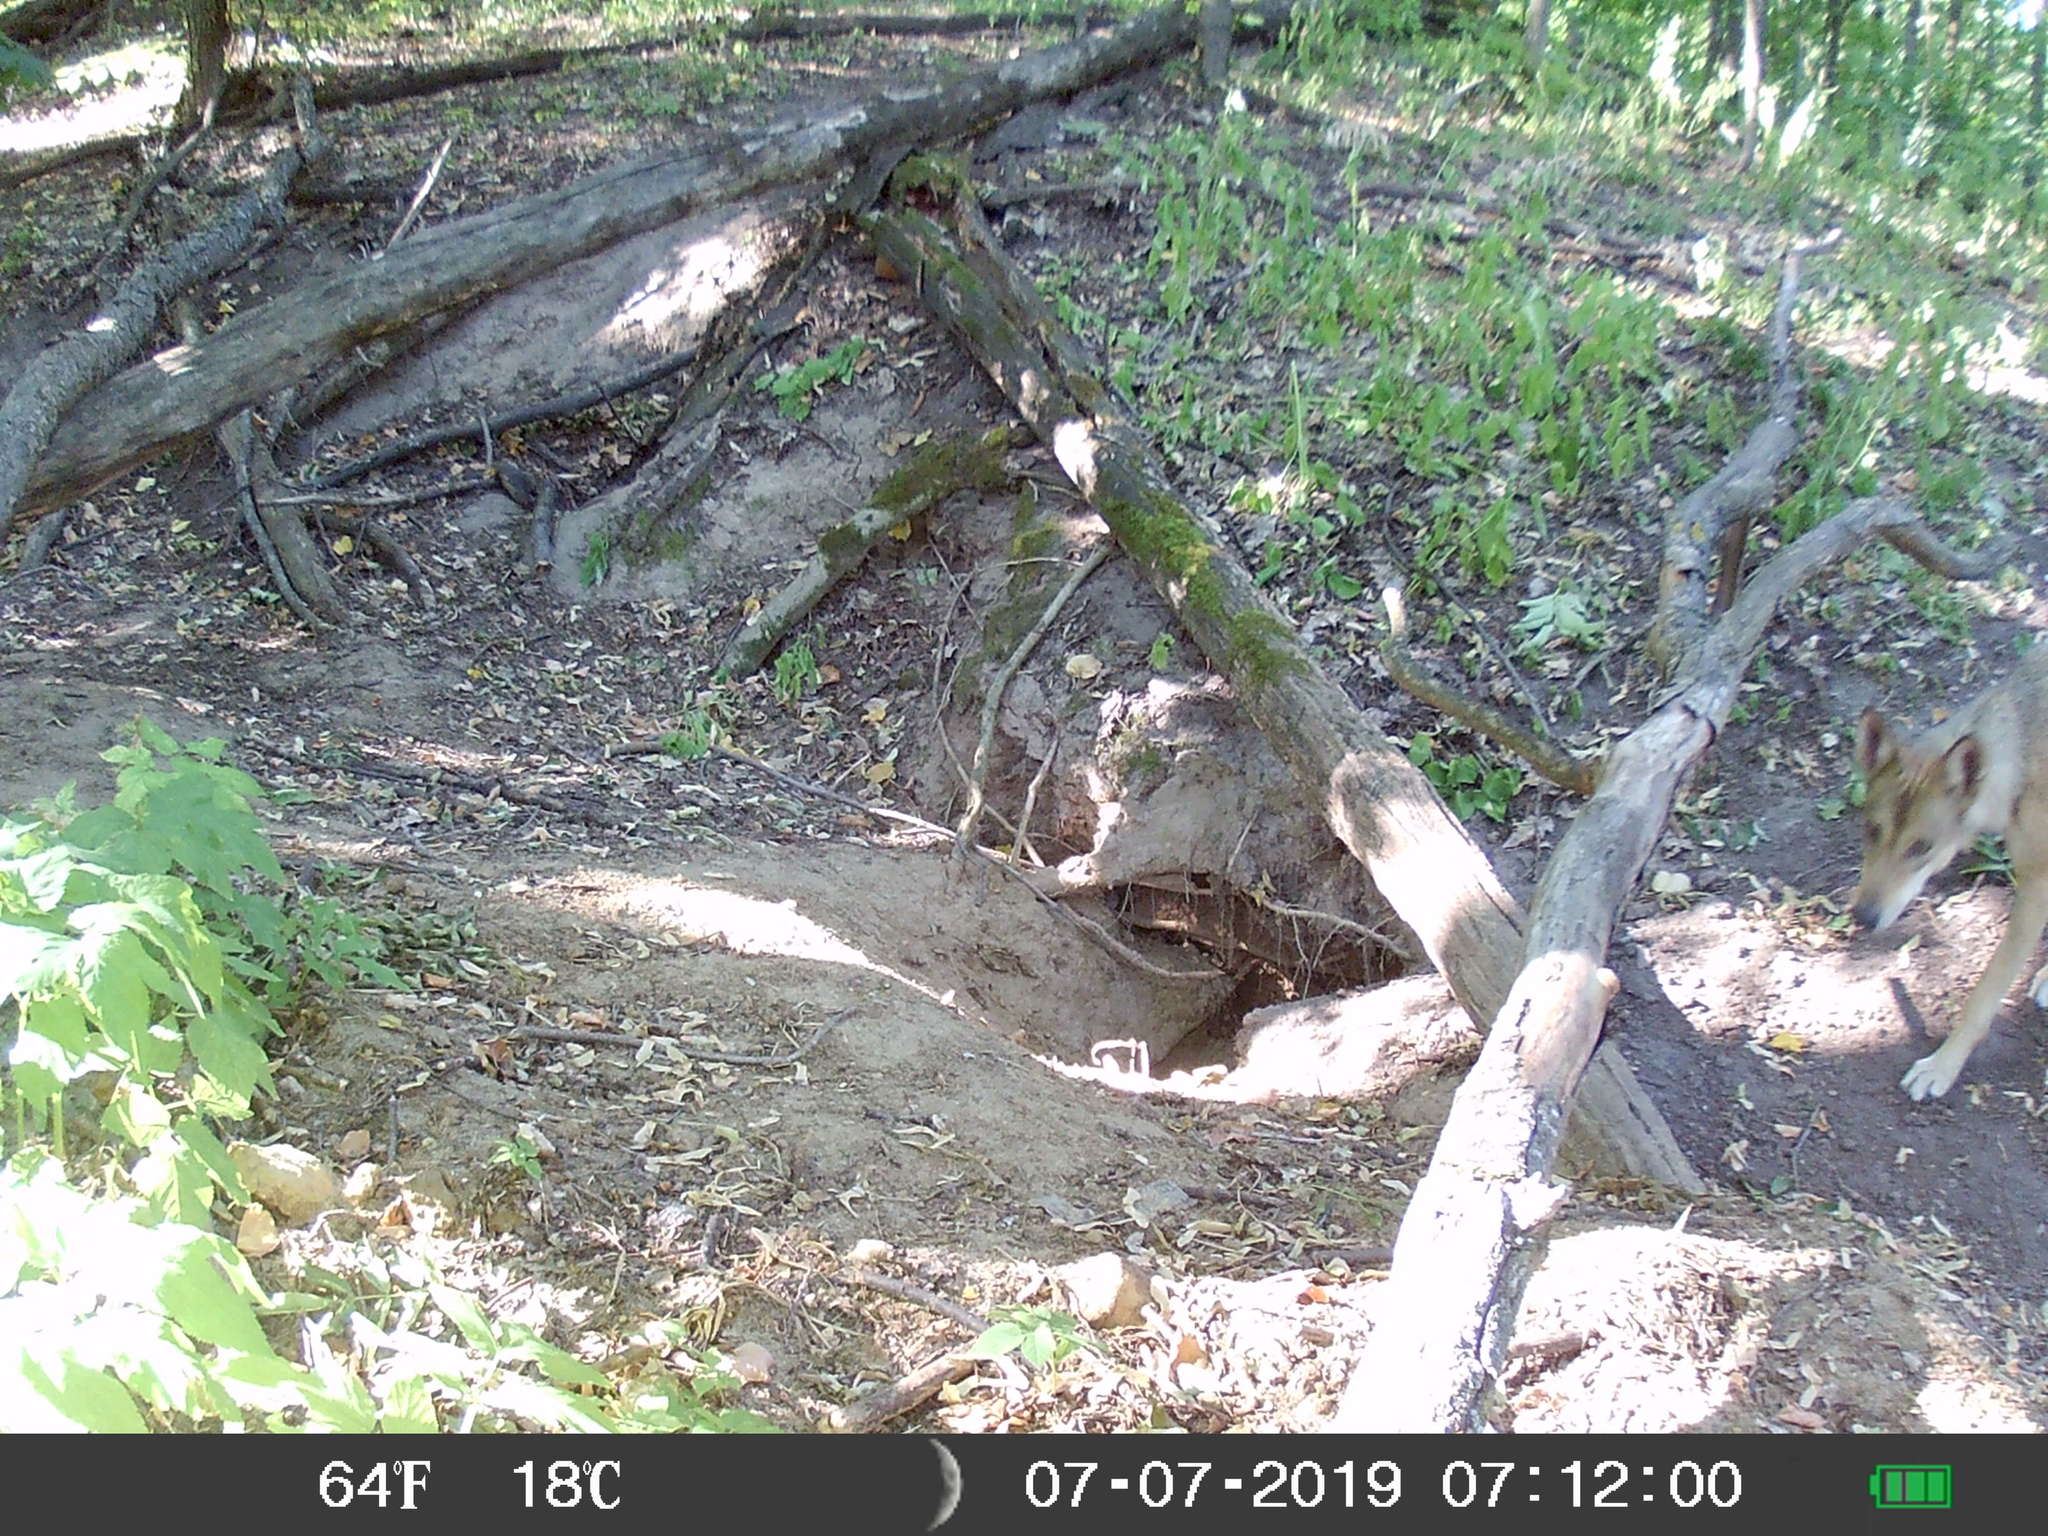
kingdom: Animalia
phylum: Chordata
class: Mammalia
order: Carnivora
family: Canidae
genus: Canis
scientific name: Canis lupus
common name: Gray wolf
